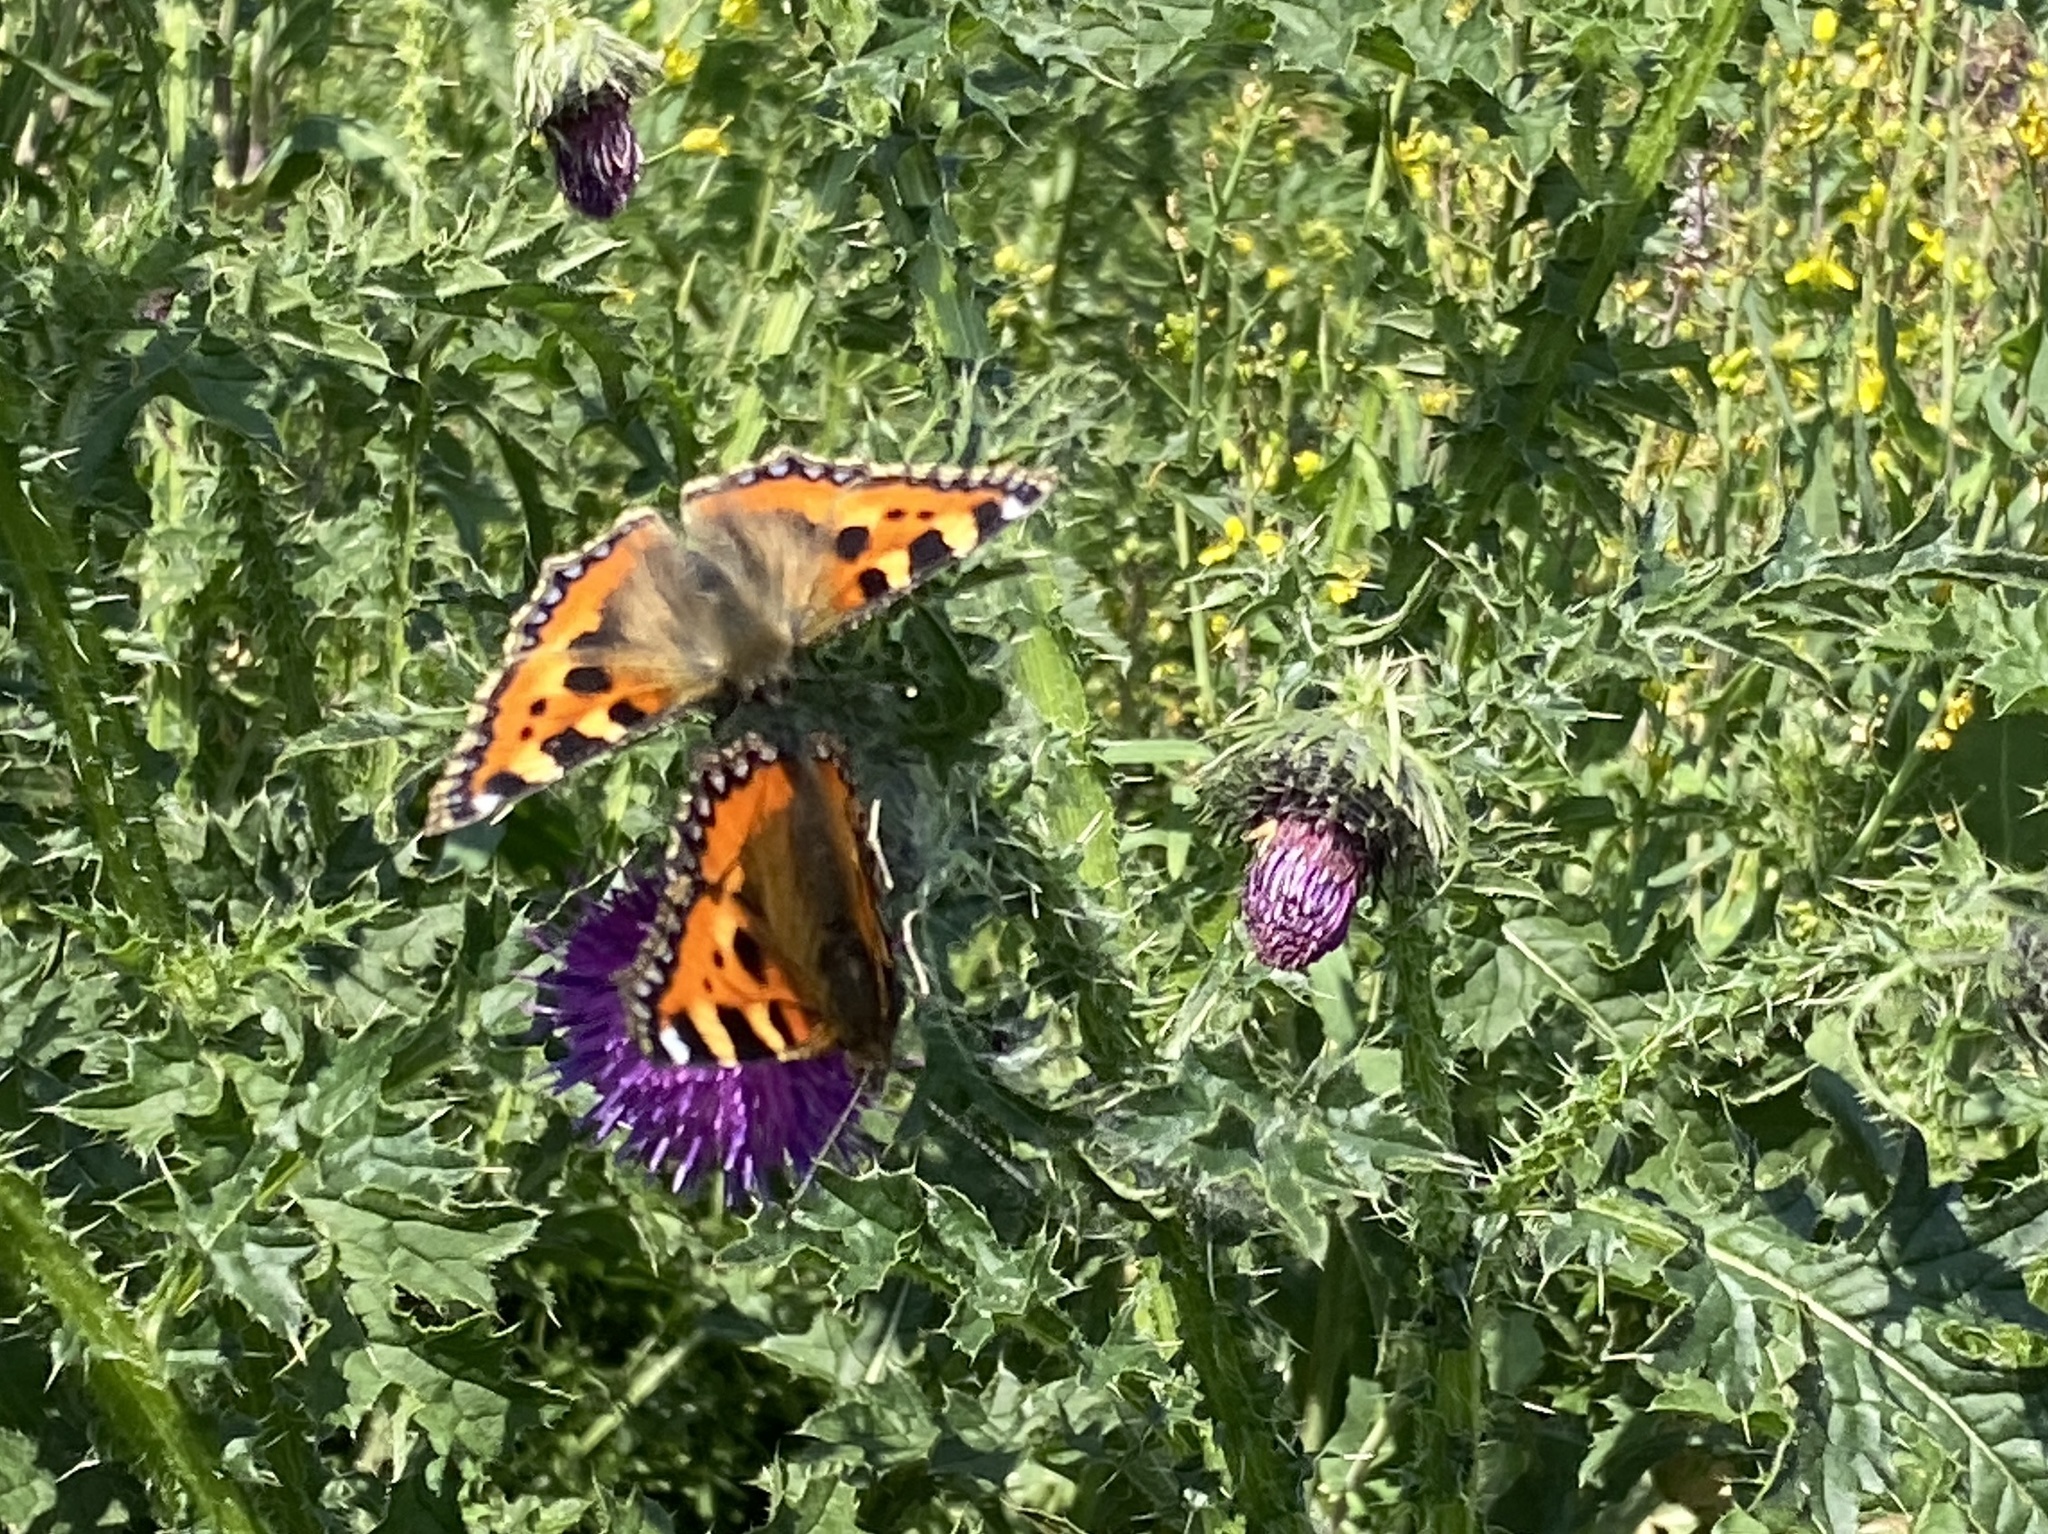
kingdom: Animalia
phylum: Arthropoda
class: Insecta
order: Lepidoptera
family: Nymphalidae
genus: Aglais
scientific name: Aglais urticae
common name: Small tortoiseshell
